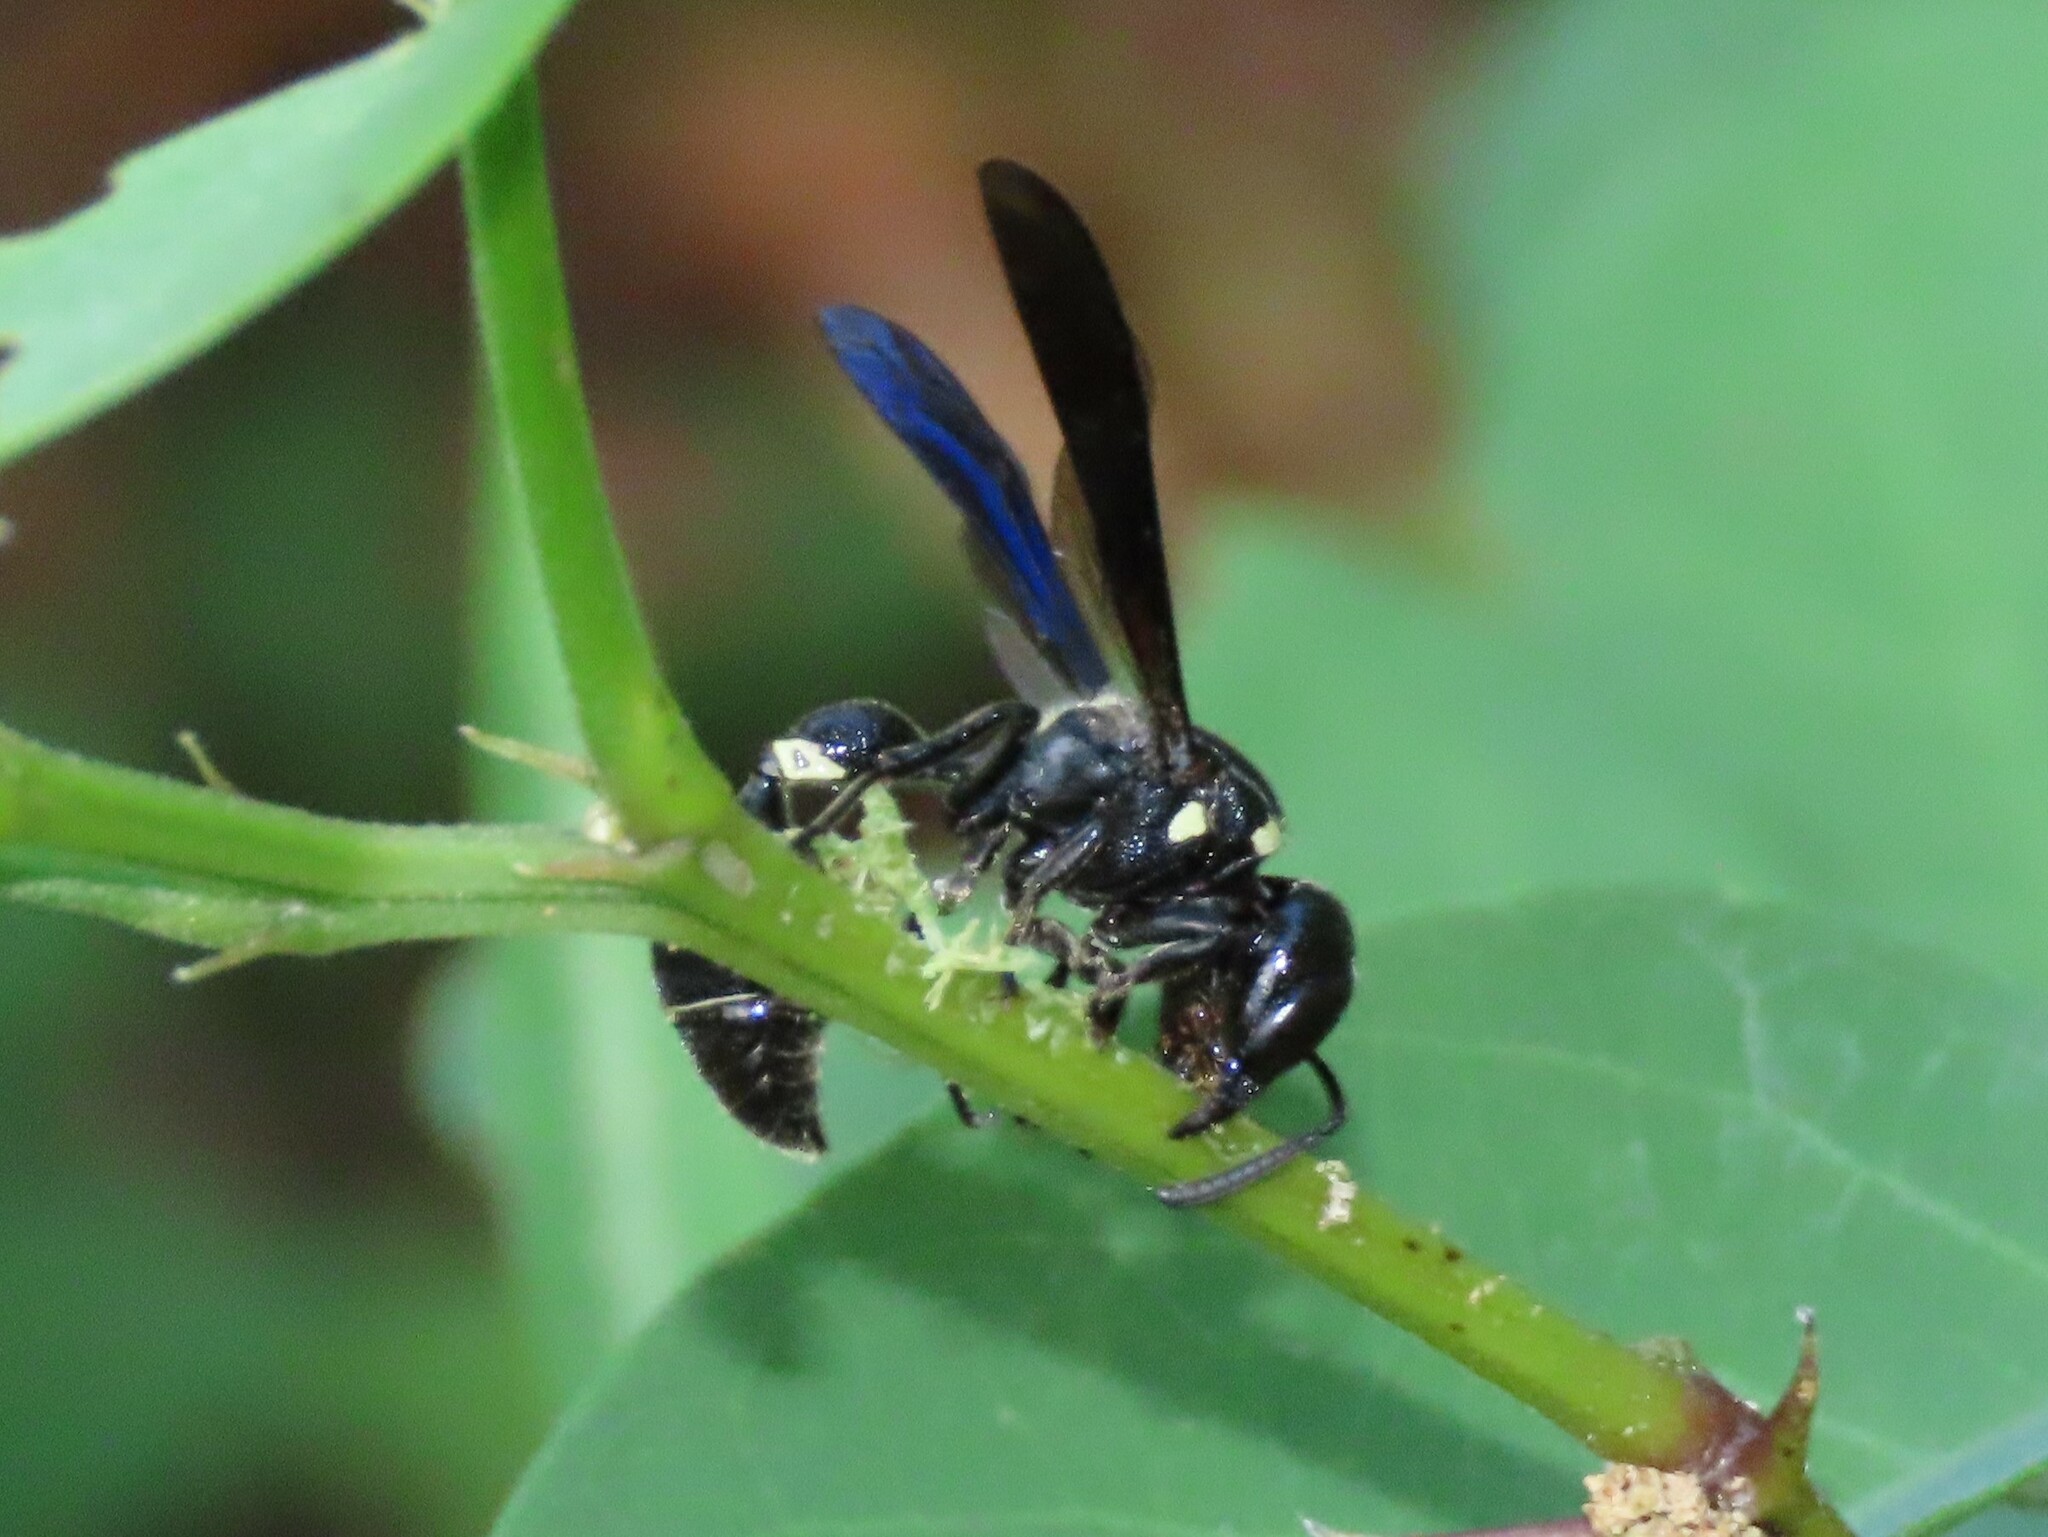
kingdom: Animalia
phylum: Arthropoda
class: Insecta
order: Hymenoptera
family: Eumenidae
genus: Zethus
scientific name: Zethus spinipes
